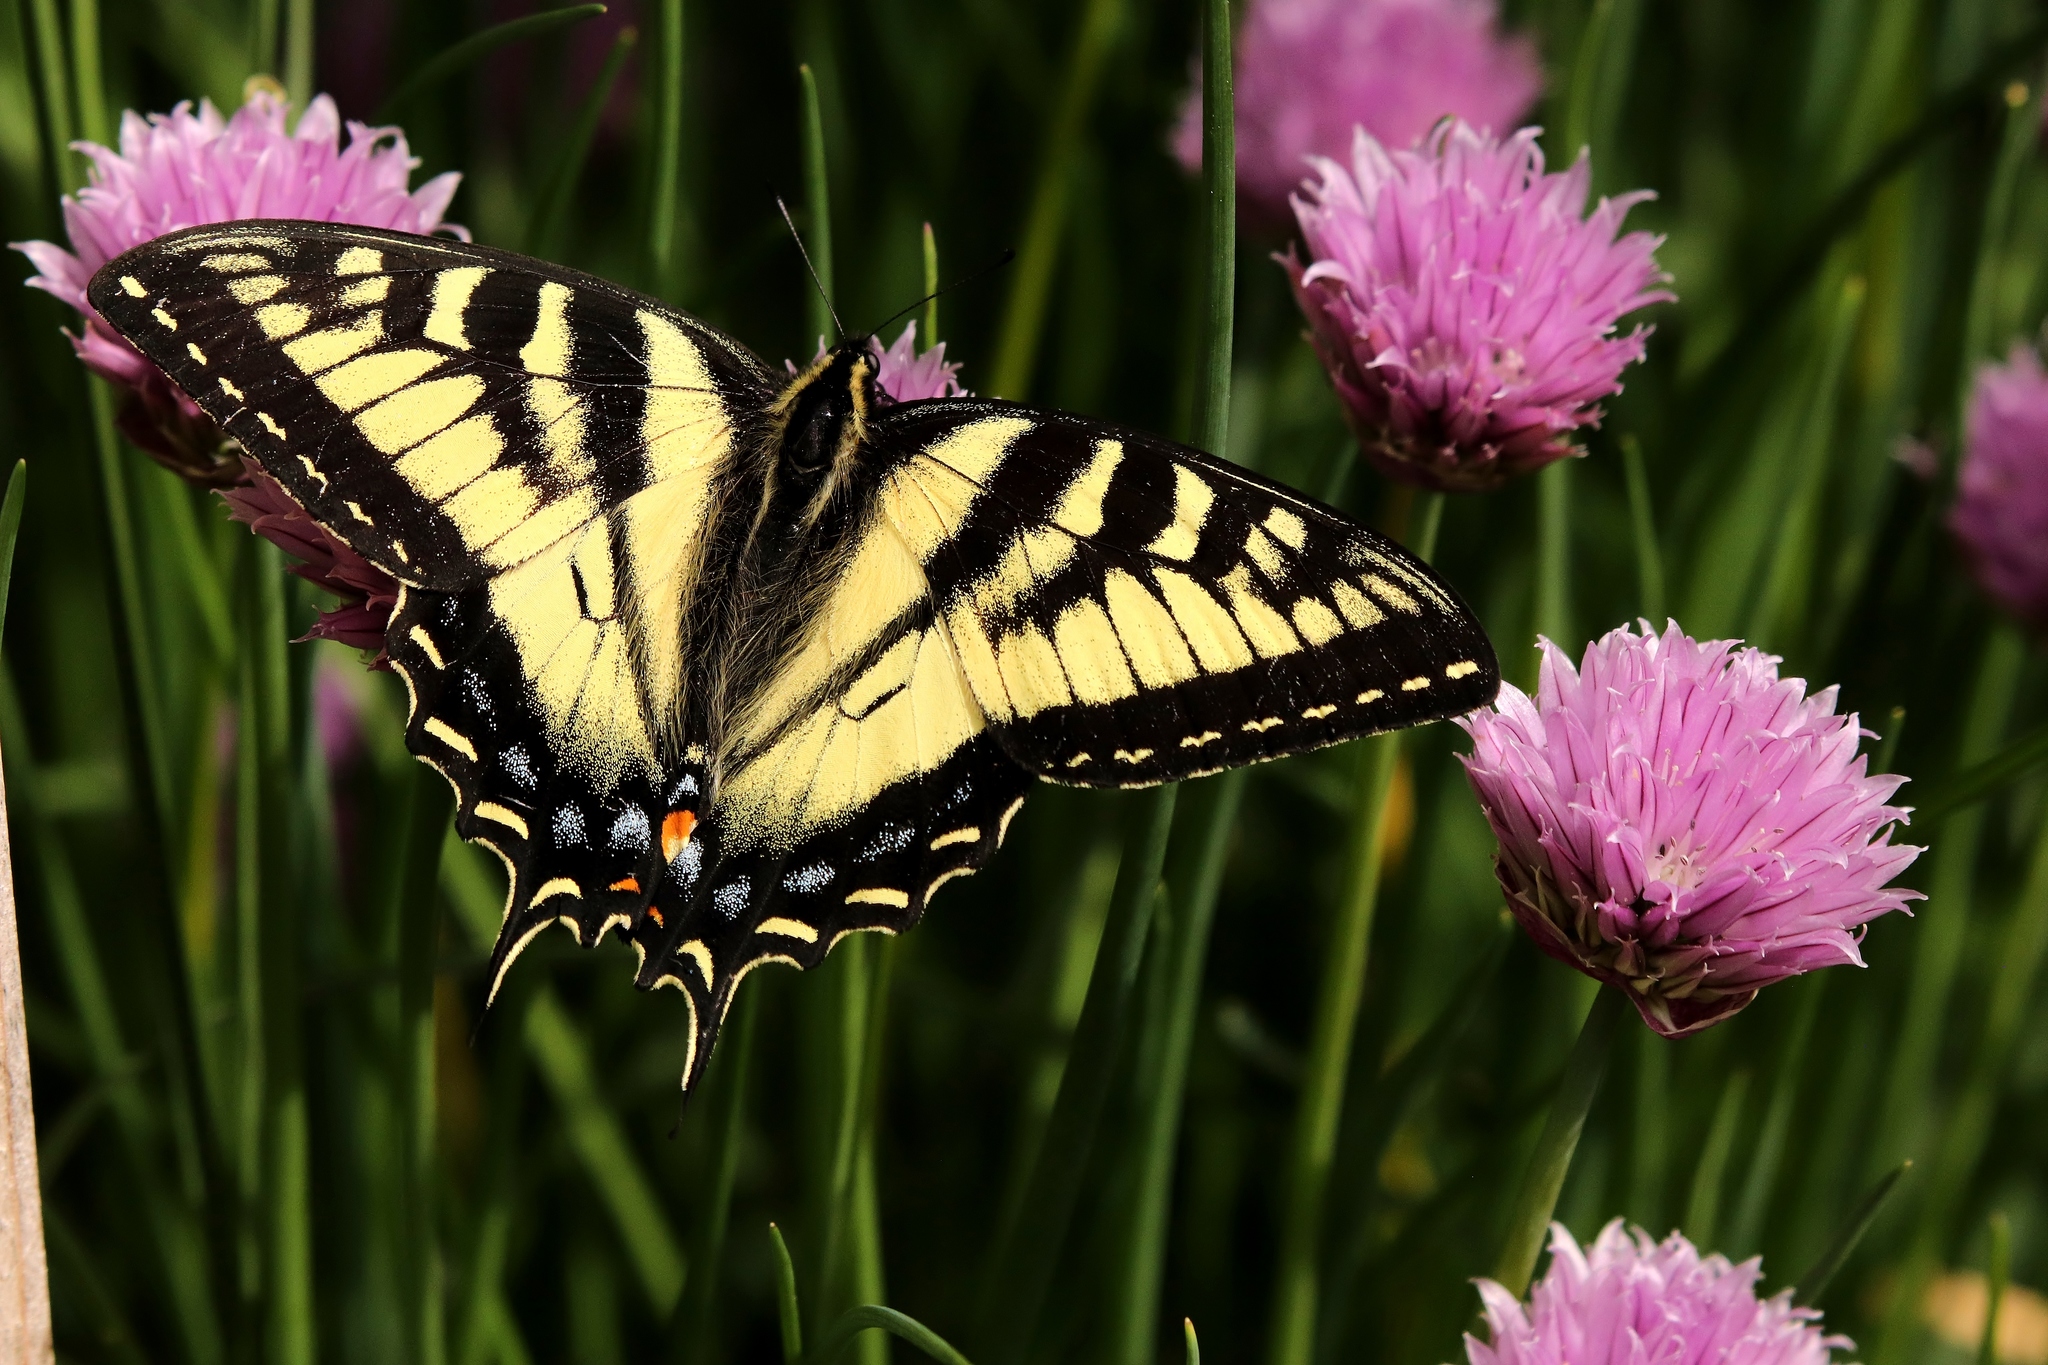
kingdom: Animalia
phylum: Arthropoda
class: Insecta
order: Lepidoptera
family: Papilionidae
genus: Papilio
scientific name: Papilio rutulus
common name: Western tiger swallowtail
